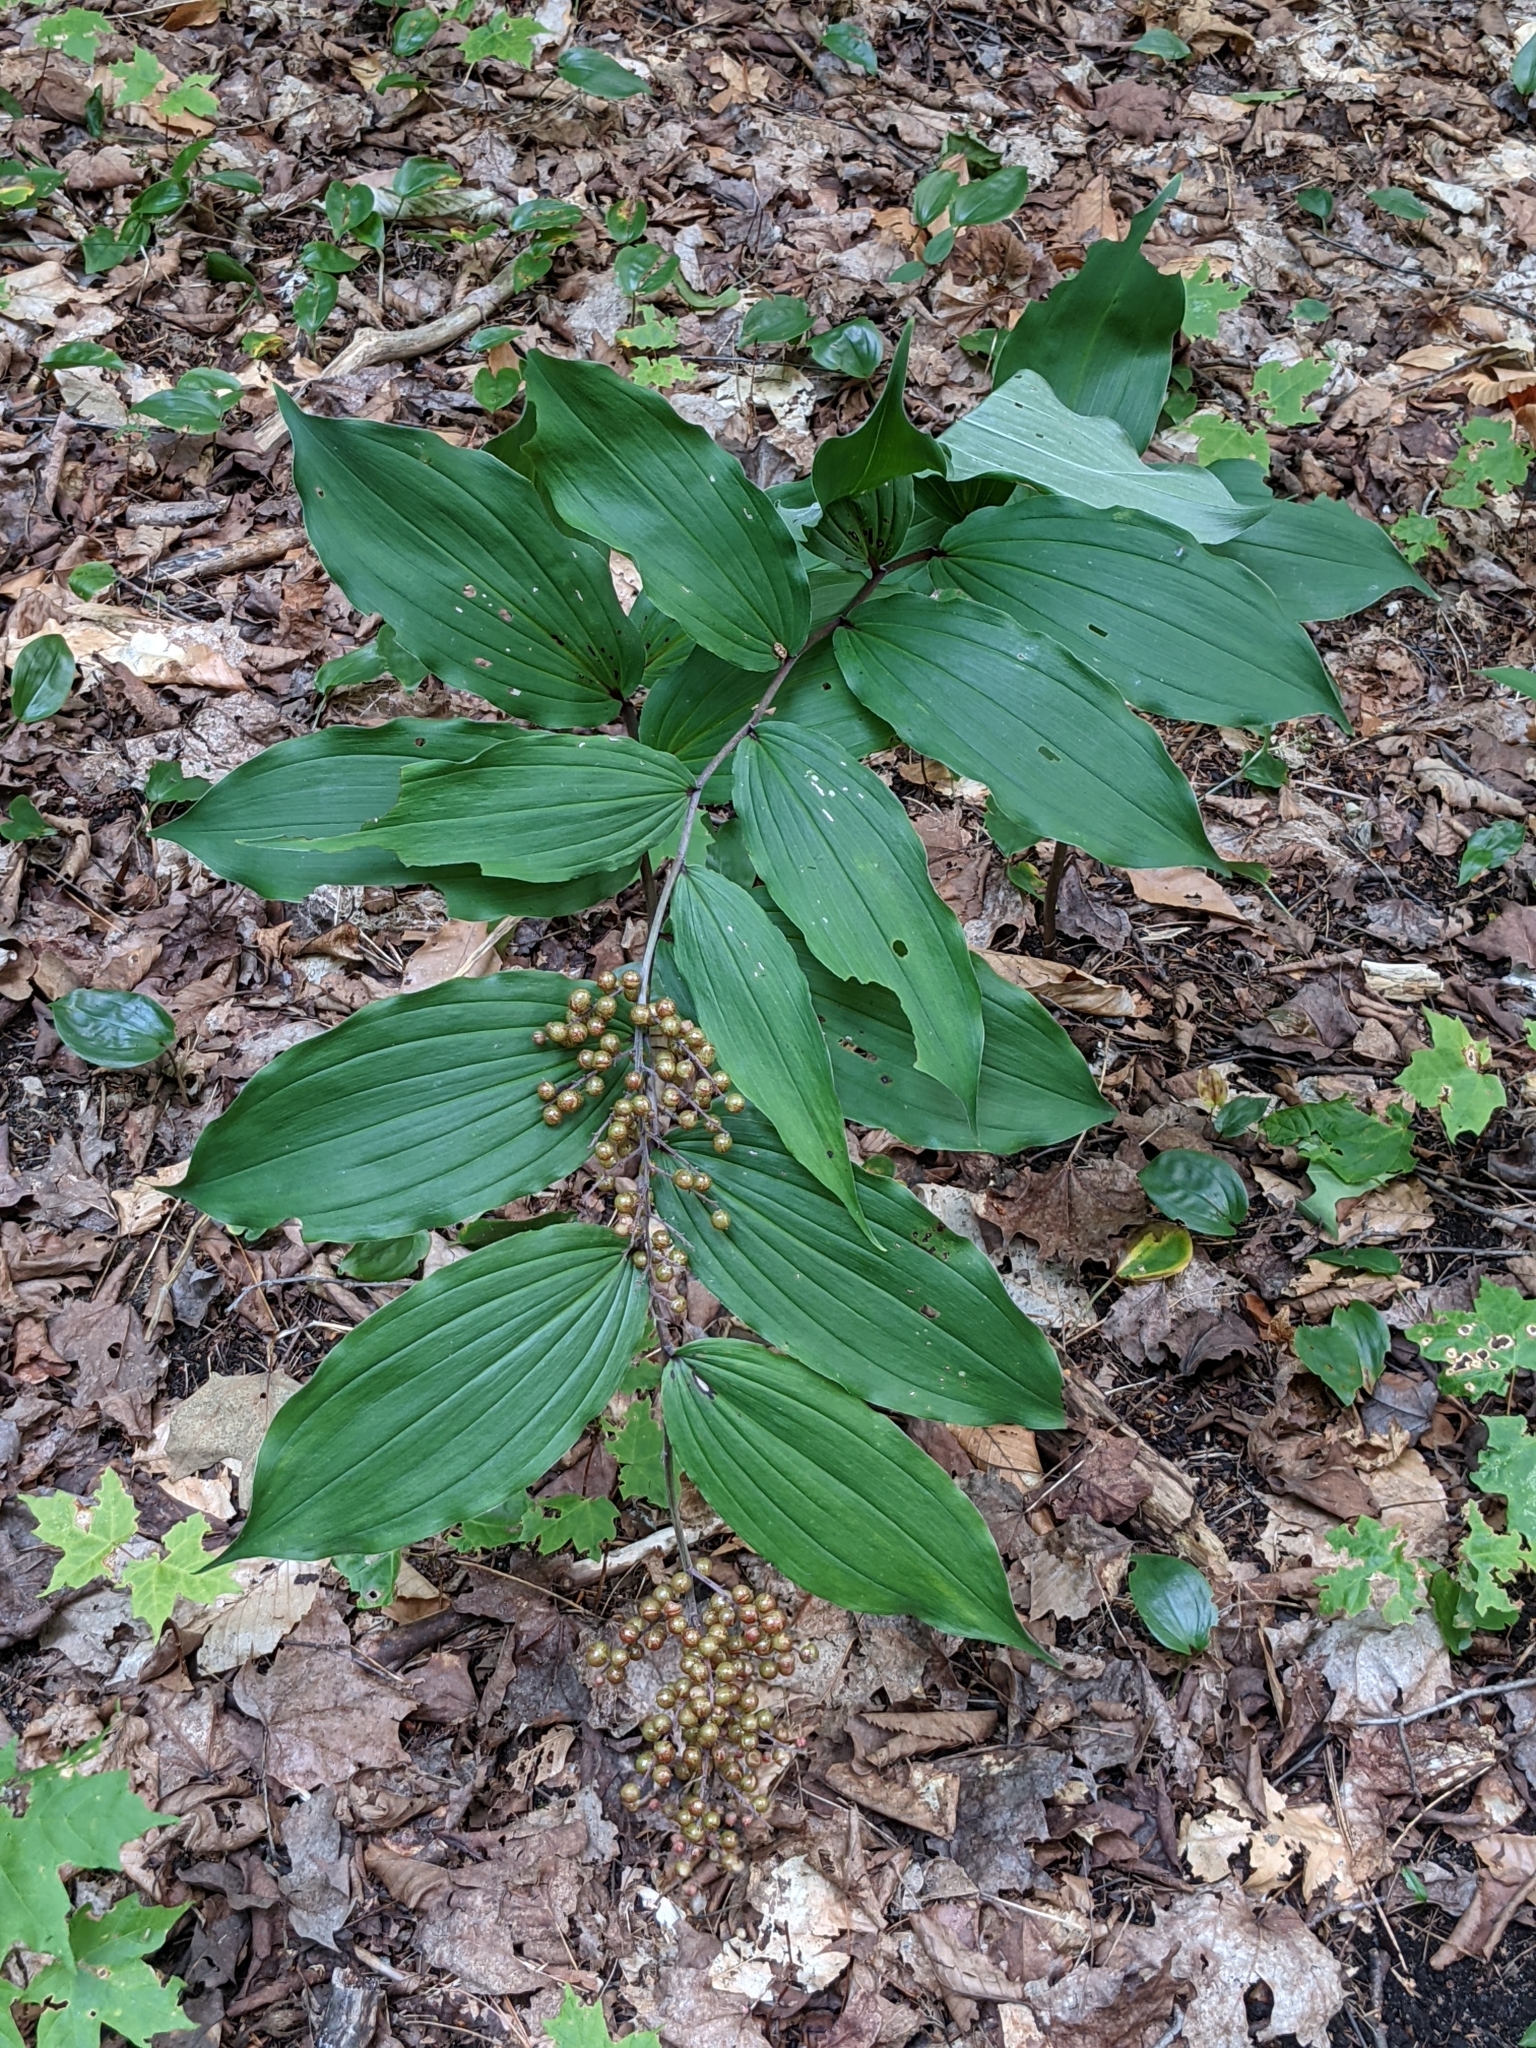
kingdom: Plantae
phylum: Tracheophyta
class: Liliopsida
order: Asparagales
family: Asparagaceae
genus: Maianthemum
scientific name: Maianthemum racemosum
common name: False spikenard
